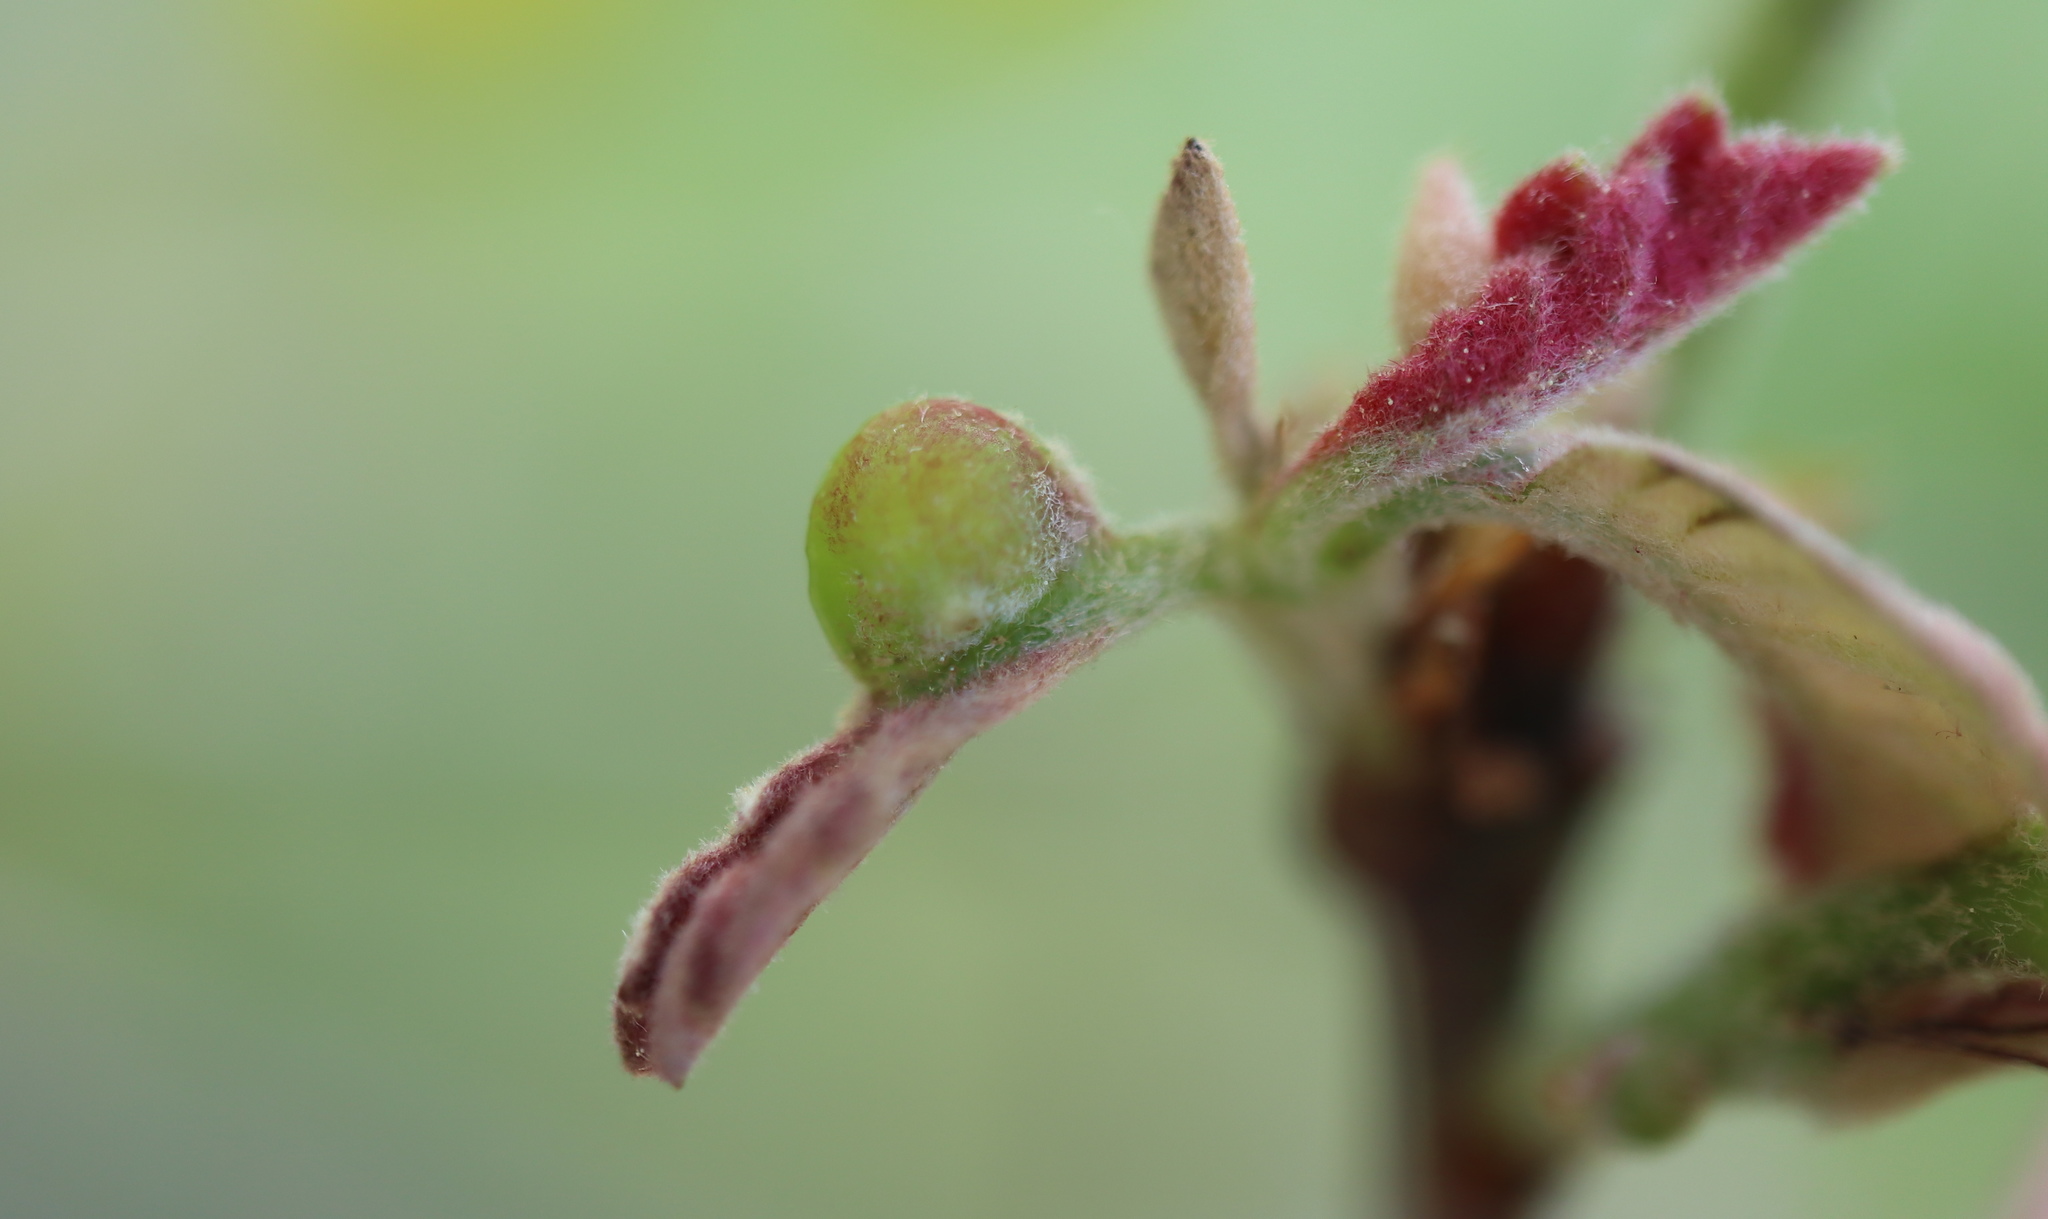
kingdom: Animalia
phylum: Arthropoda
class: Insecta
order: Hymenoptera
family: Cynipidae
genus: Andricus
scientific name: Andricus
